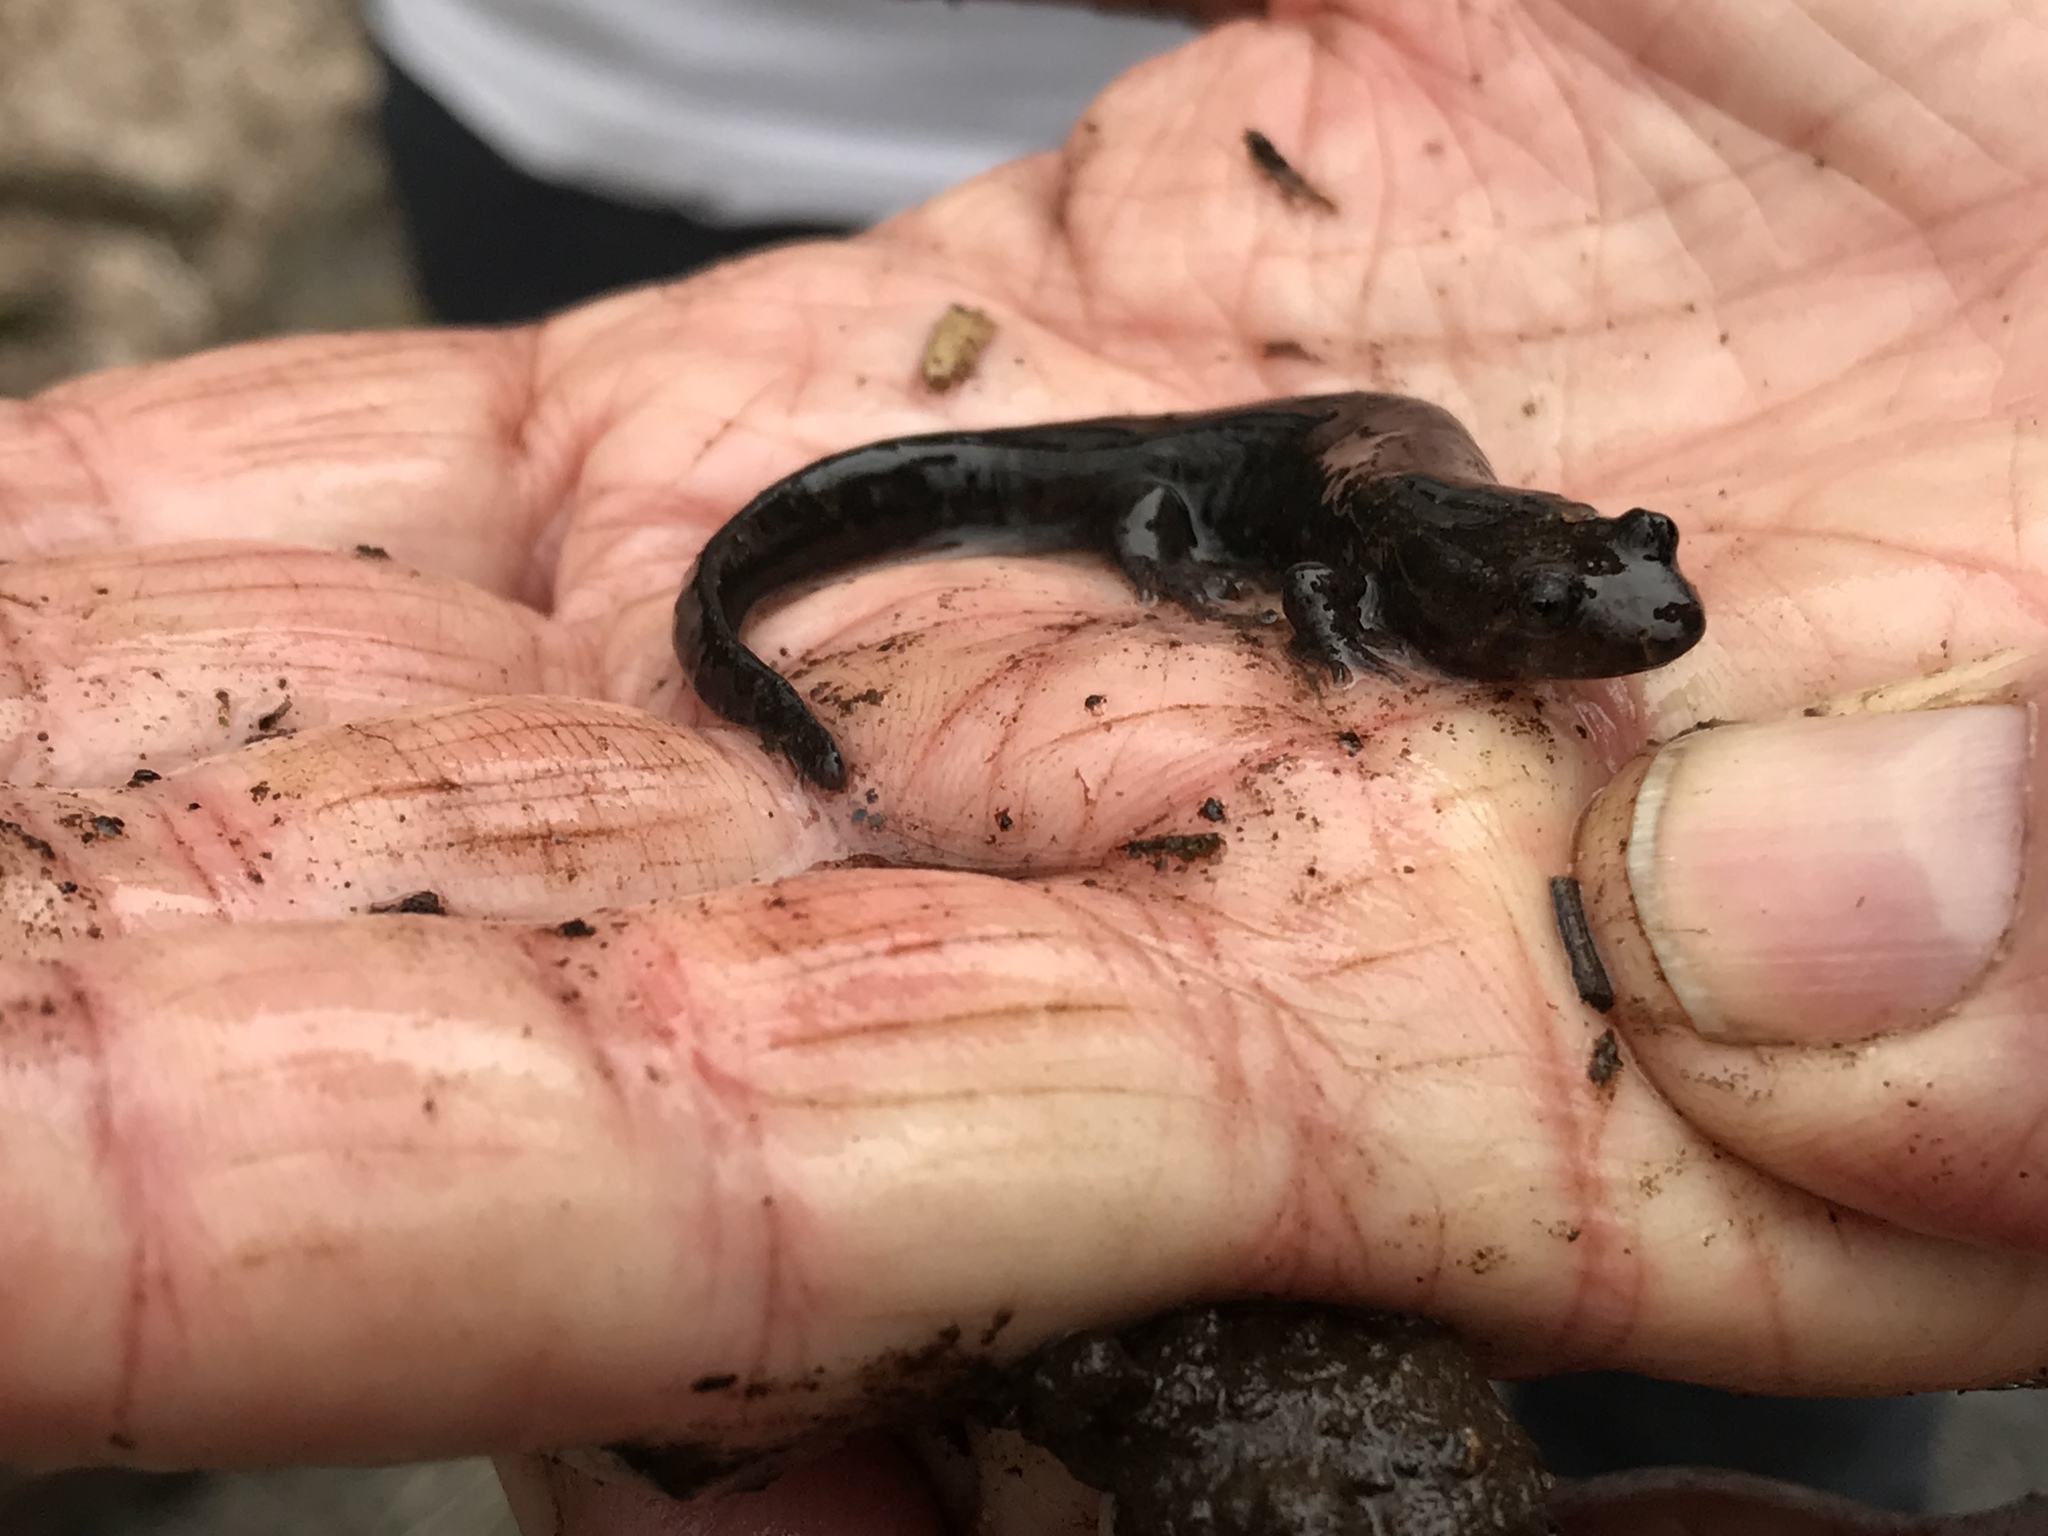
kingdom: Animalia
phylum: Chordata
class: Amphibia
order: Caudata
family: Plethodontidae
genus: Desmognathus
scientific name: Desmognathus fuscus
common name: Northern dusky salamander
